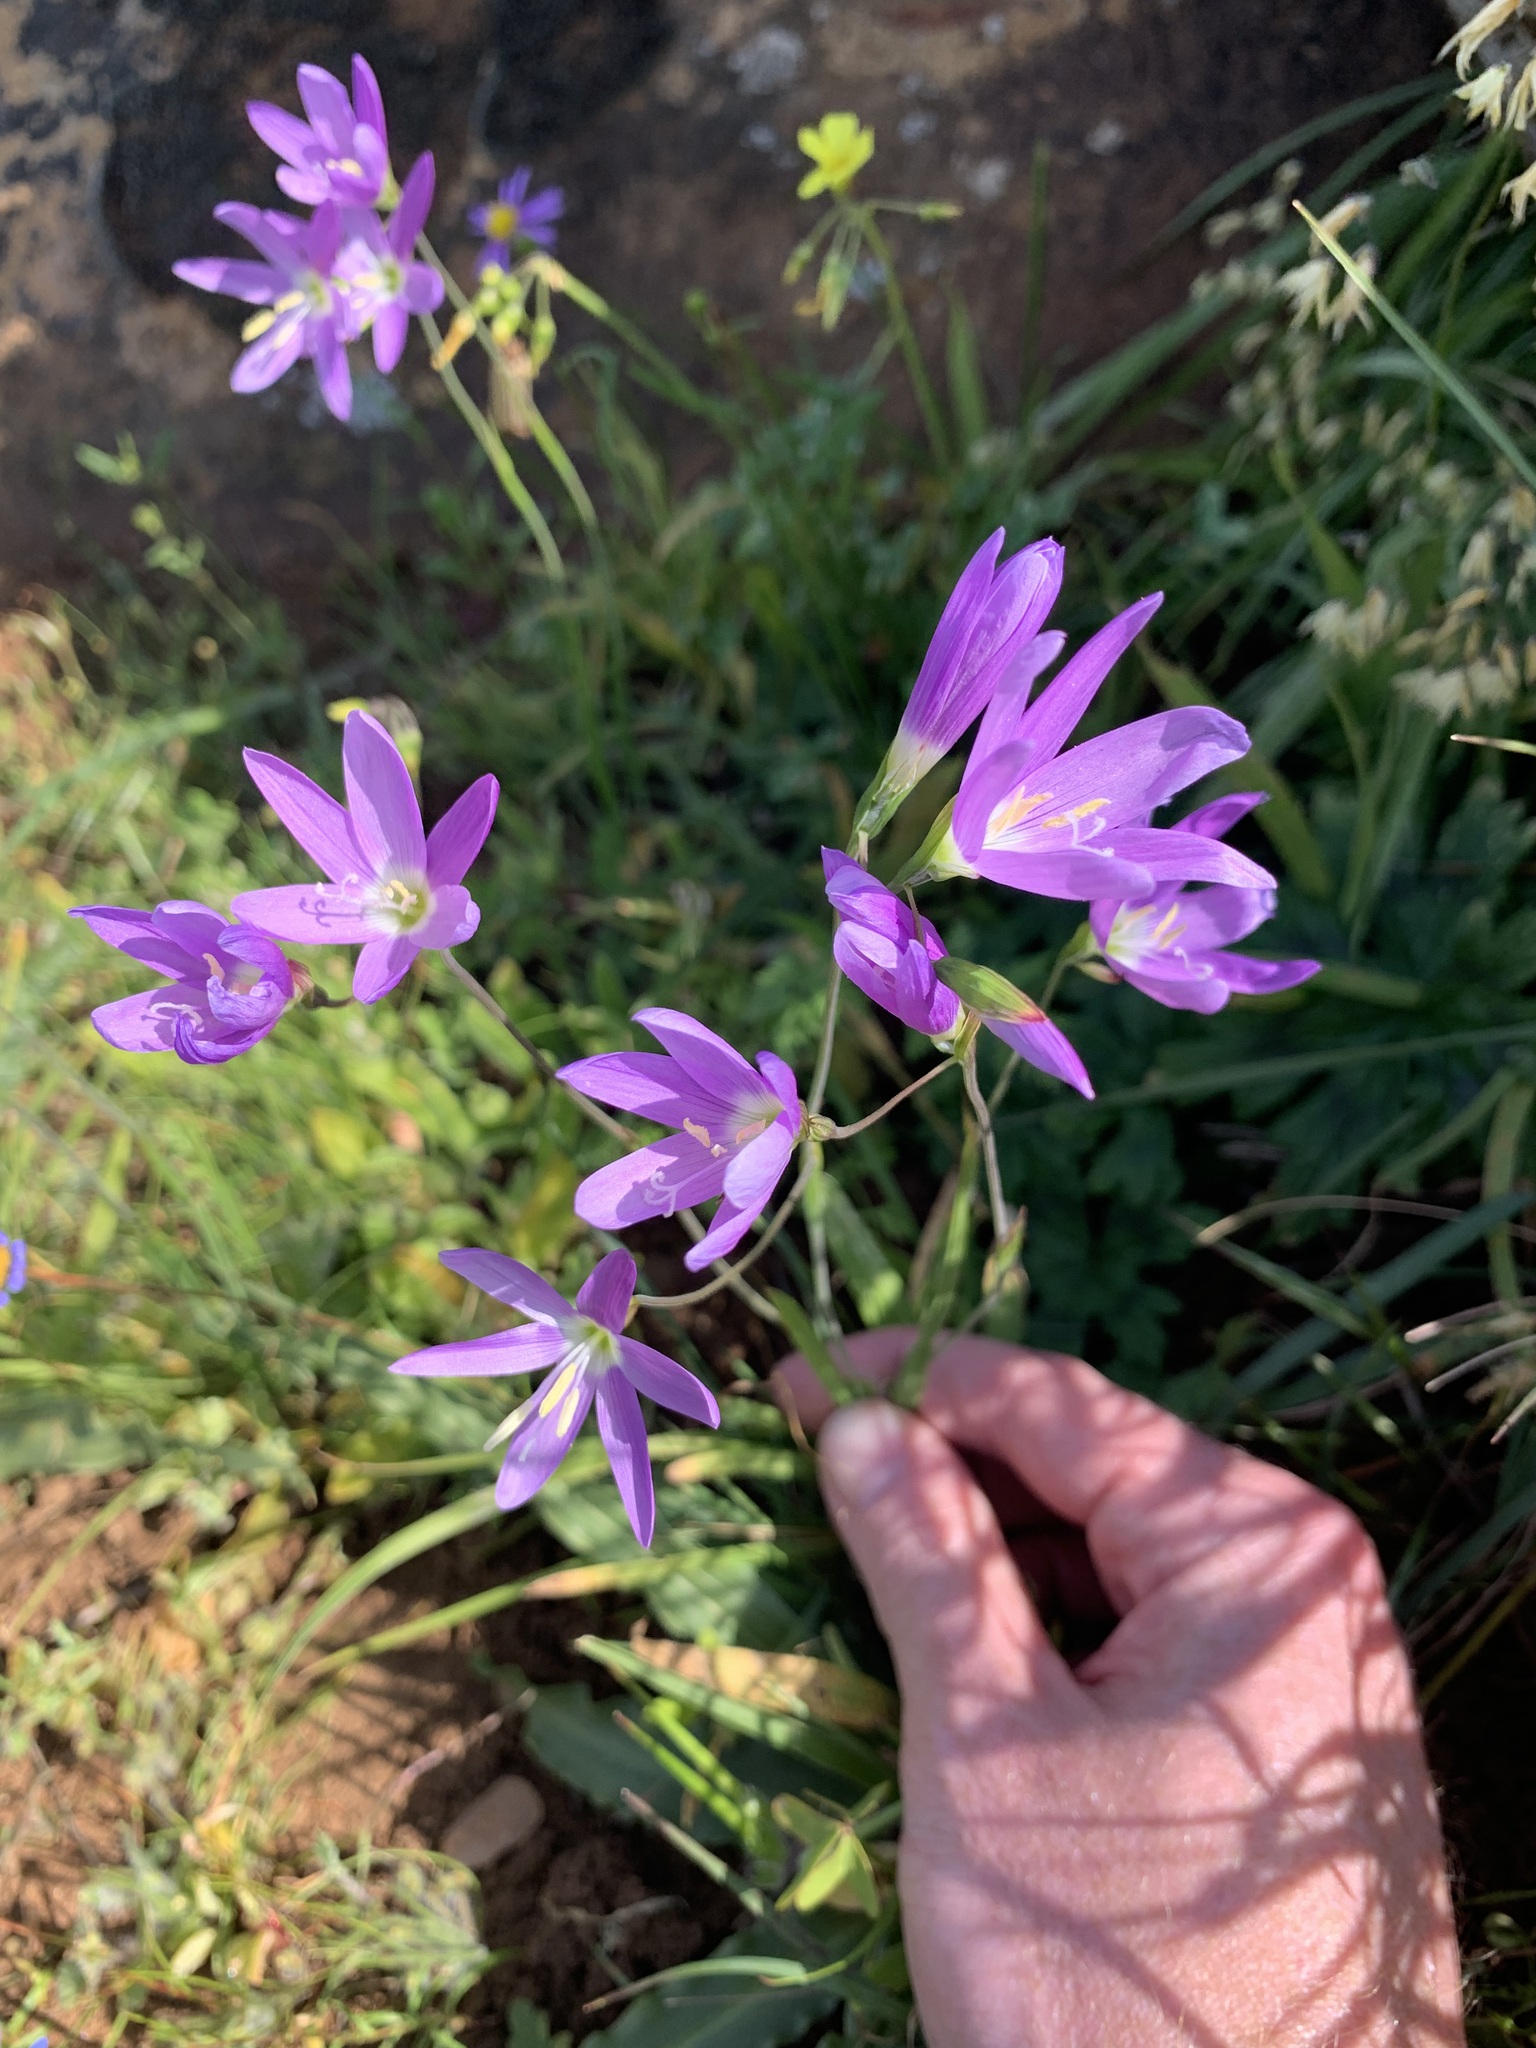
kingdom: Plantae
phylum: Tracheophyta
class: Liliopsida
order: Asparagales
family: Iridaceae
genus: Geissorhiza
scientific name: Geissorhiza inaequalis
